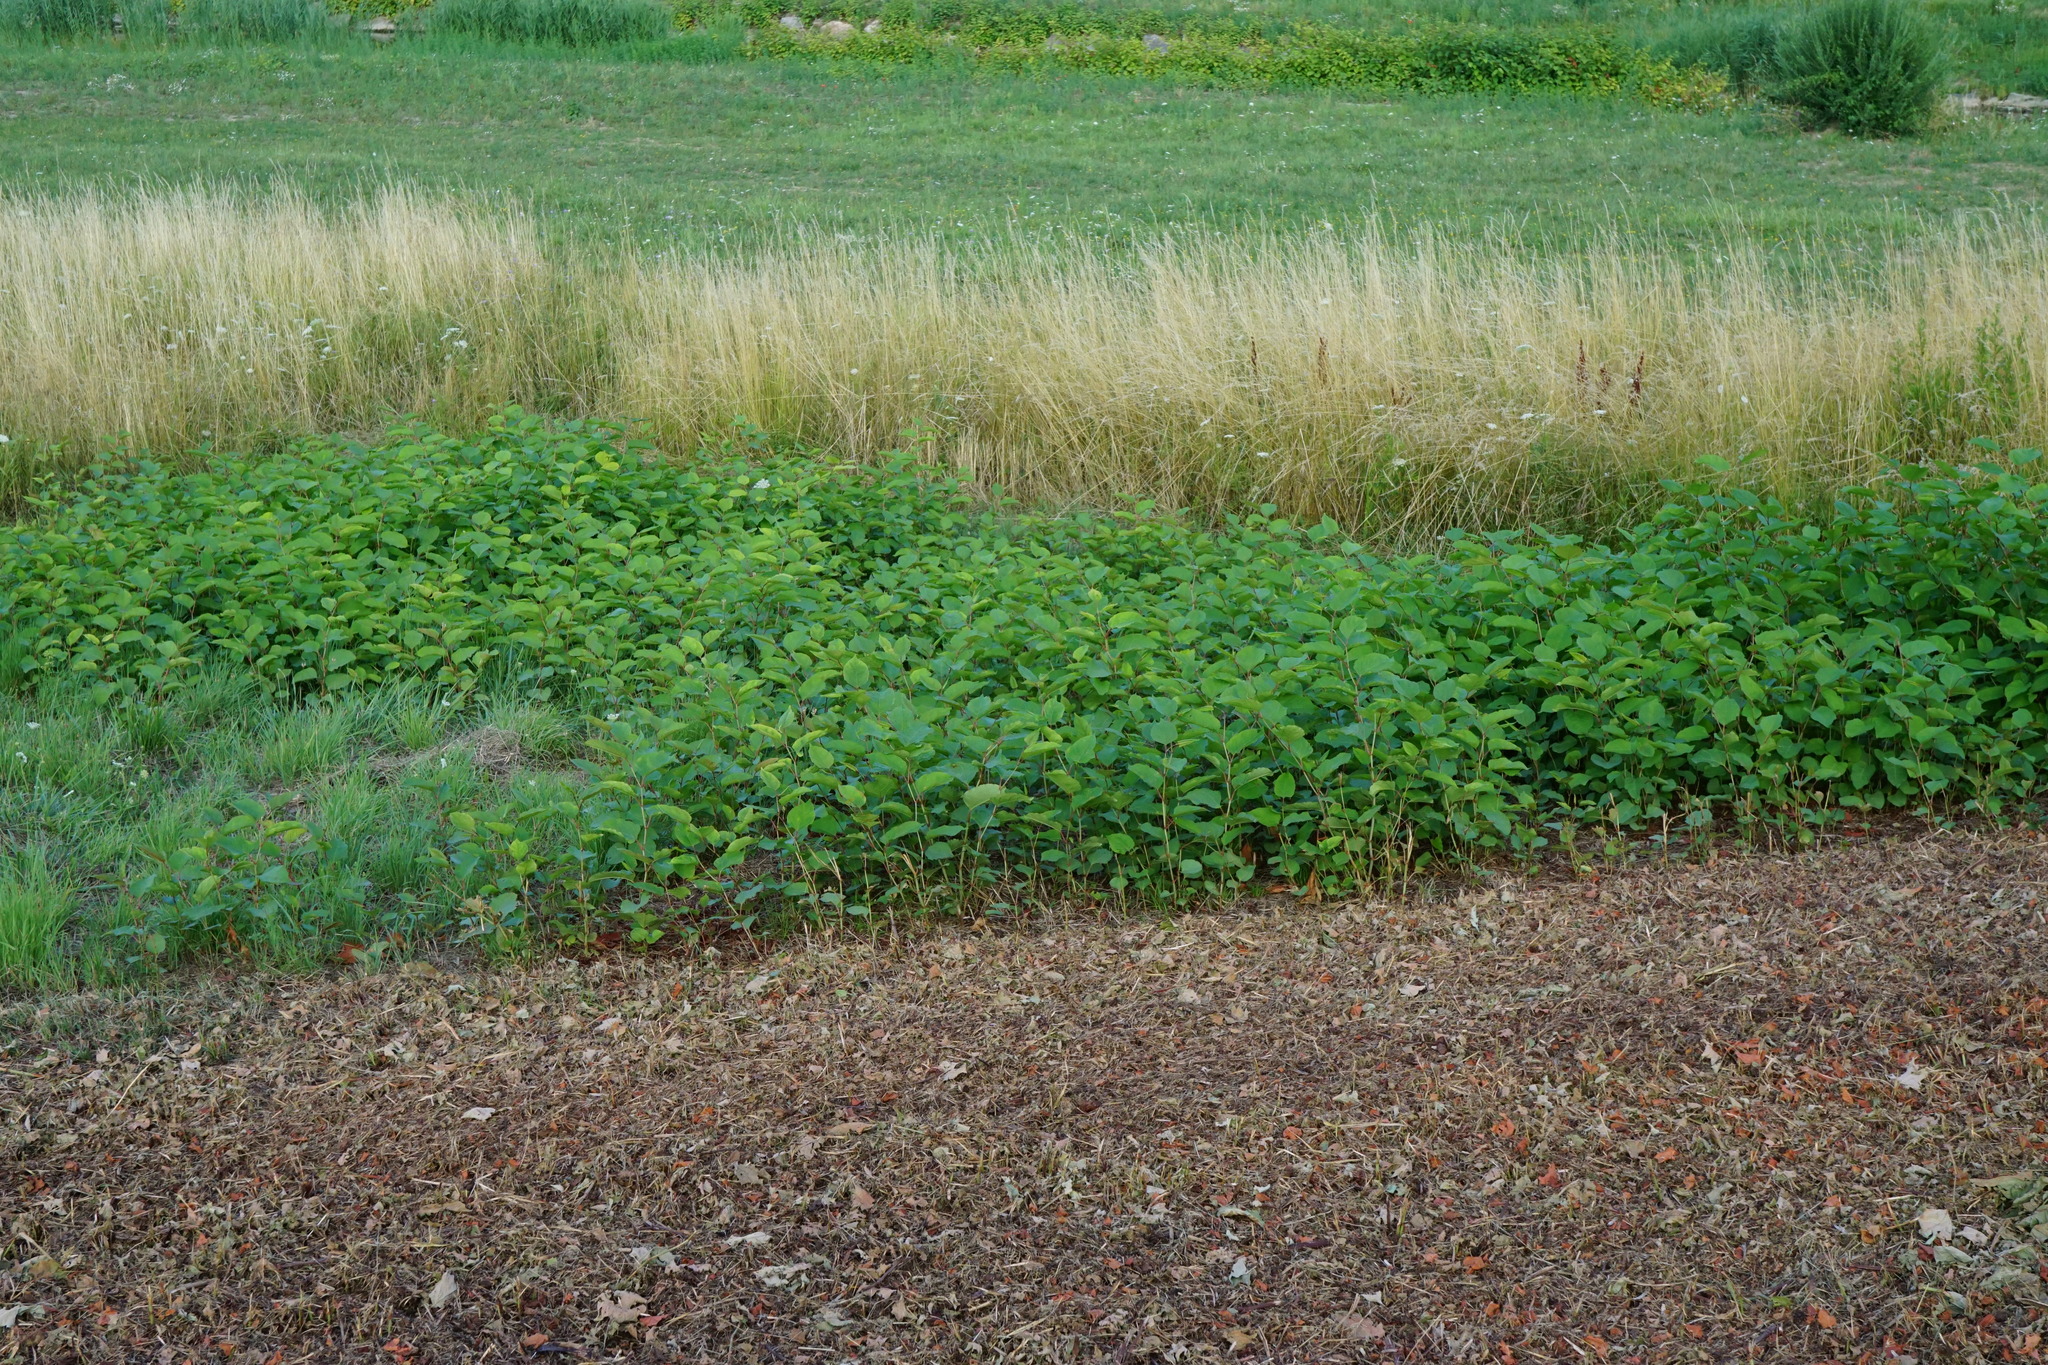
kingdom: Plantae
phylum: Tracheophyta
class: Magnoliopsida
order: Caryophyllales
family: Polygonaceae
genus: Reynoutria
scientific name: Reynoutria bohemica
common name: Bohemian knotweed
